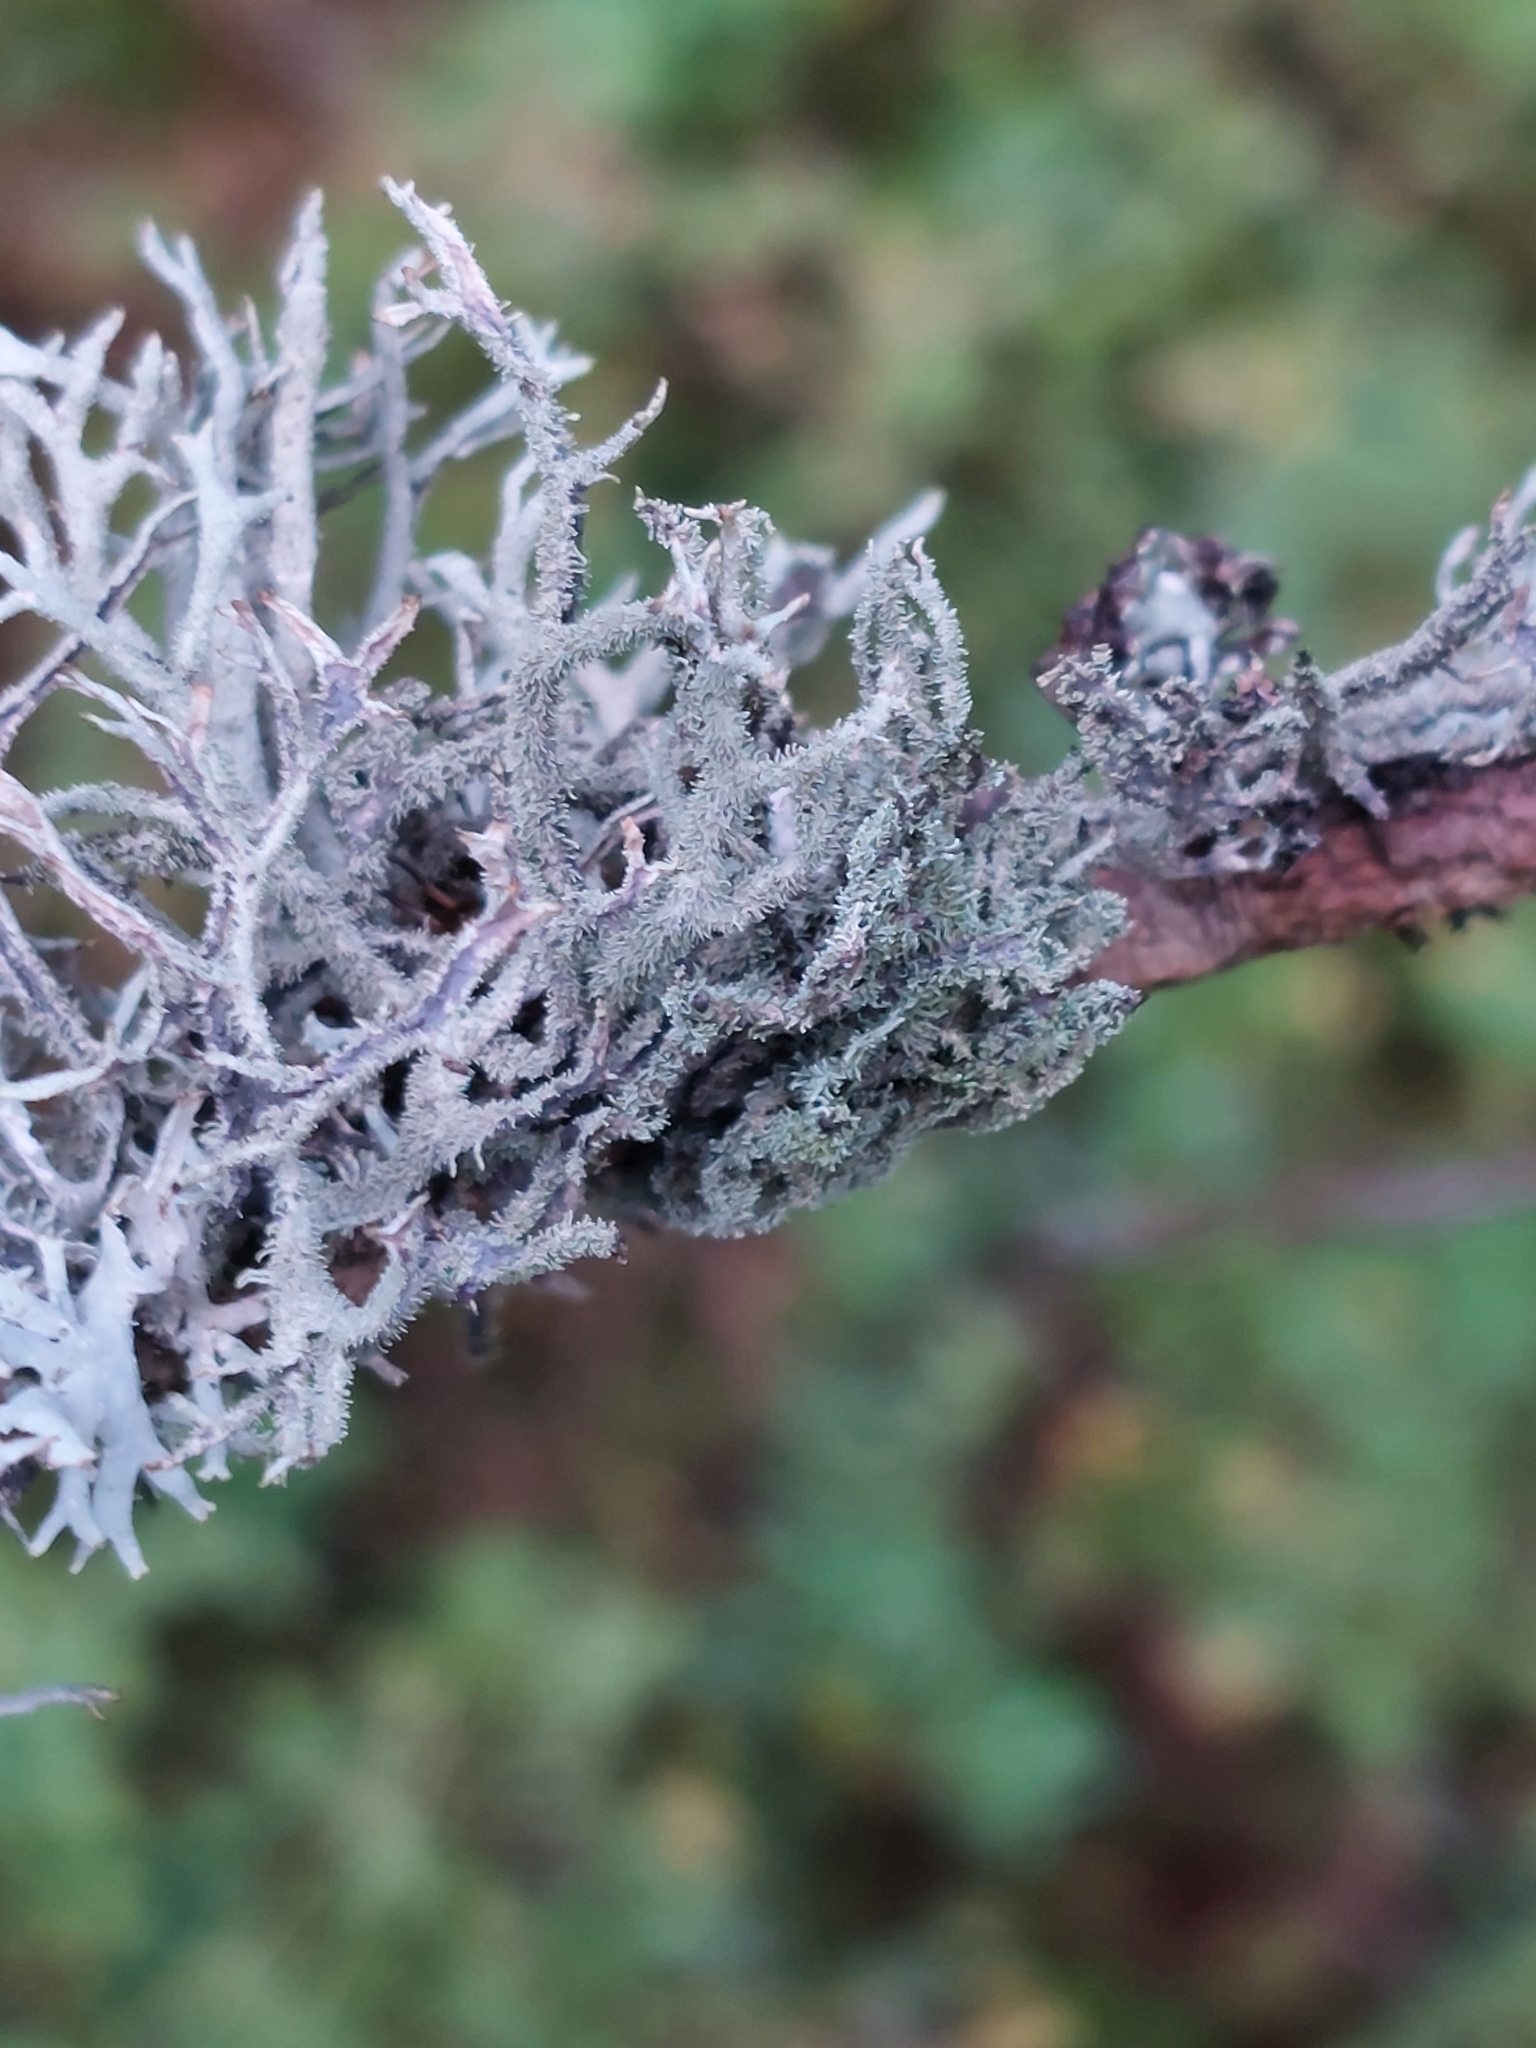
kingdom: Fungi
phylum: Ascomycota
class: Lecanoromycetes
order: Lecanorales
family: Parmeliaceae
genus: Pseudevernia
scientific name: Pseudevernia furfuracea
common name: Tree moss
